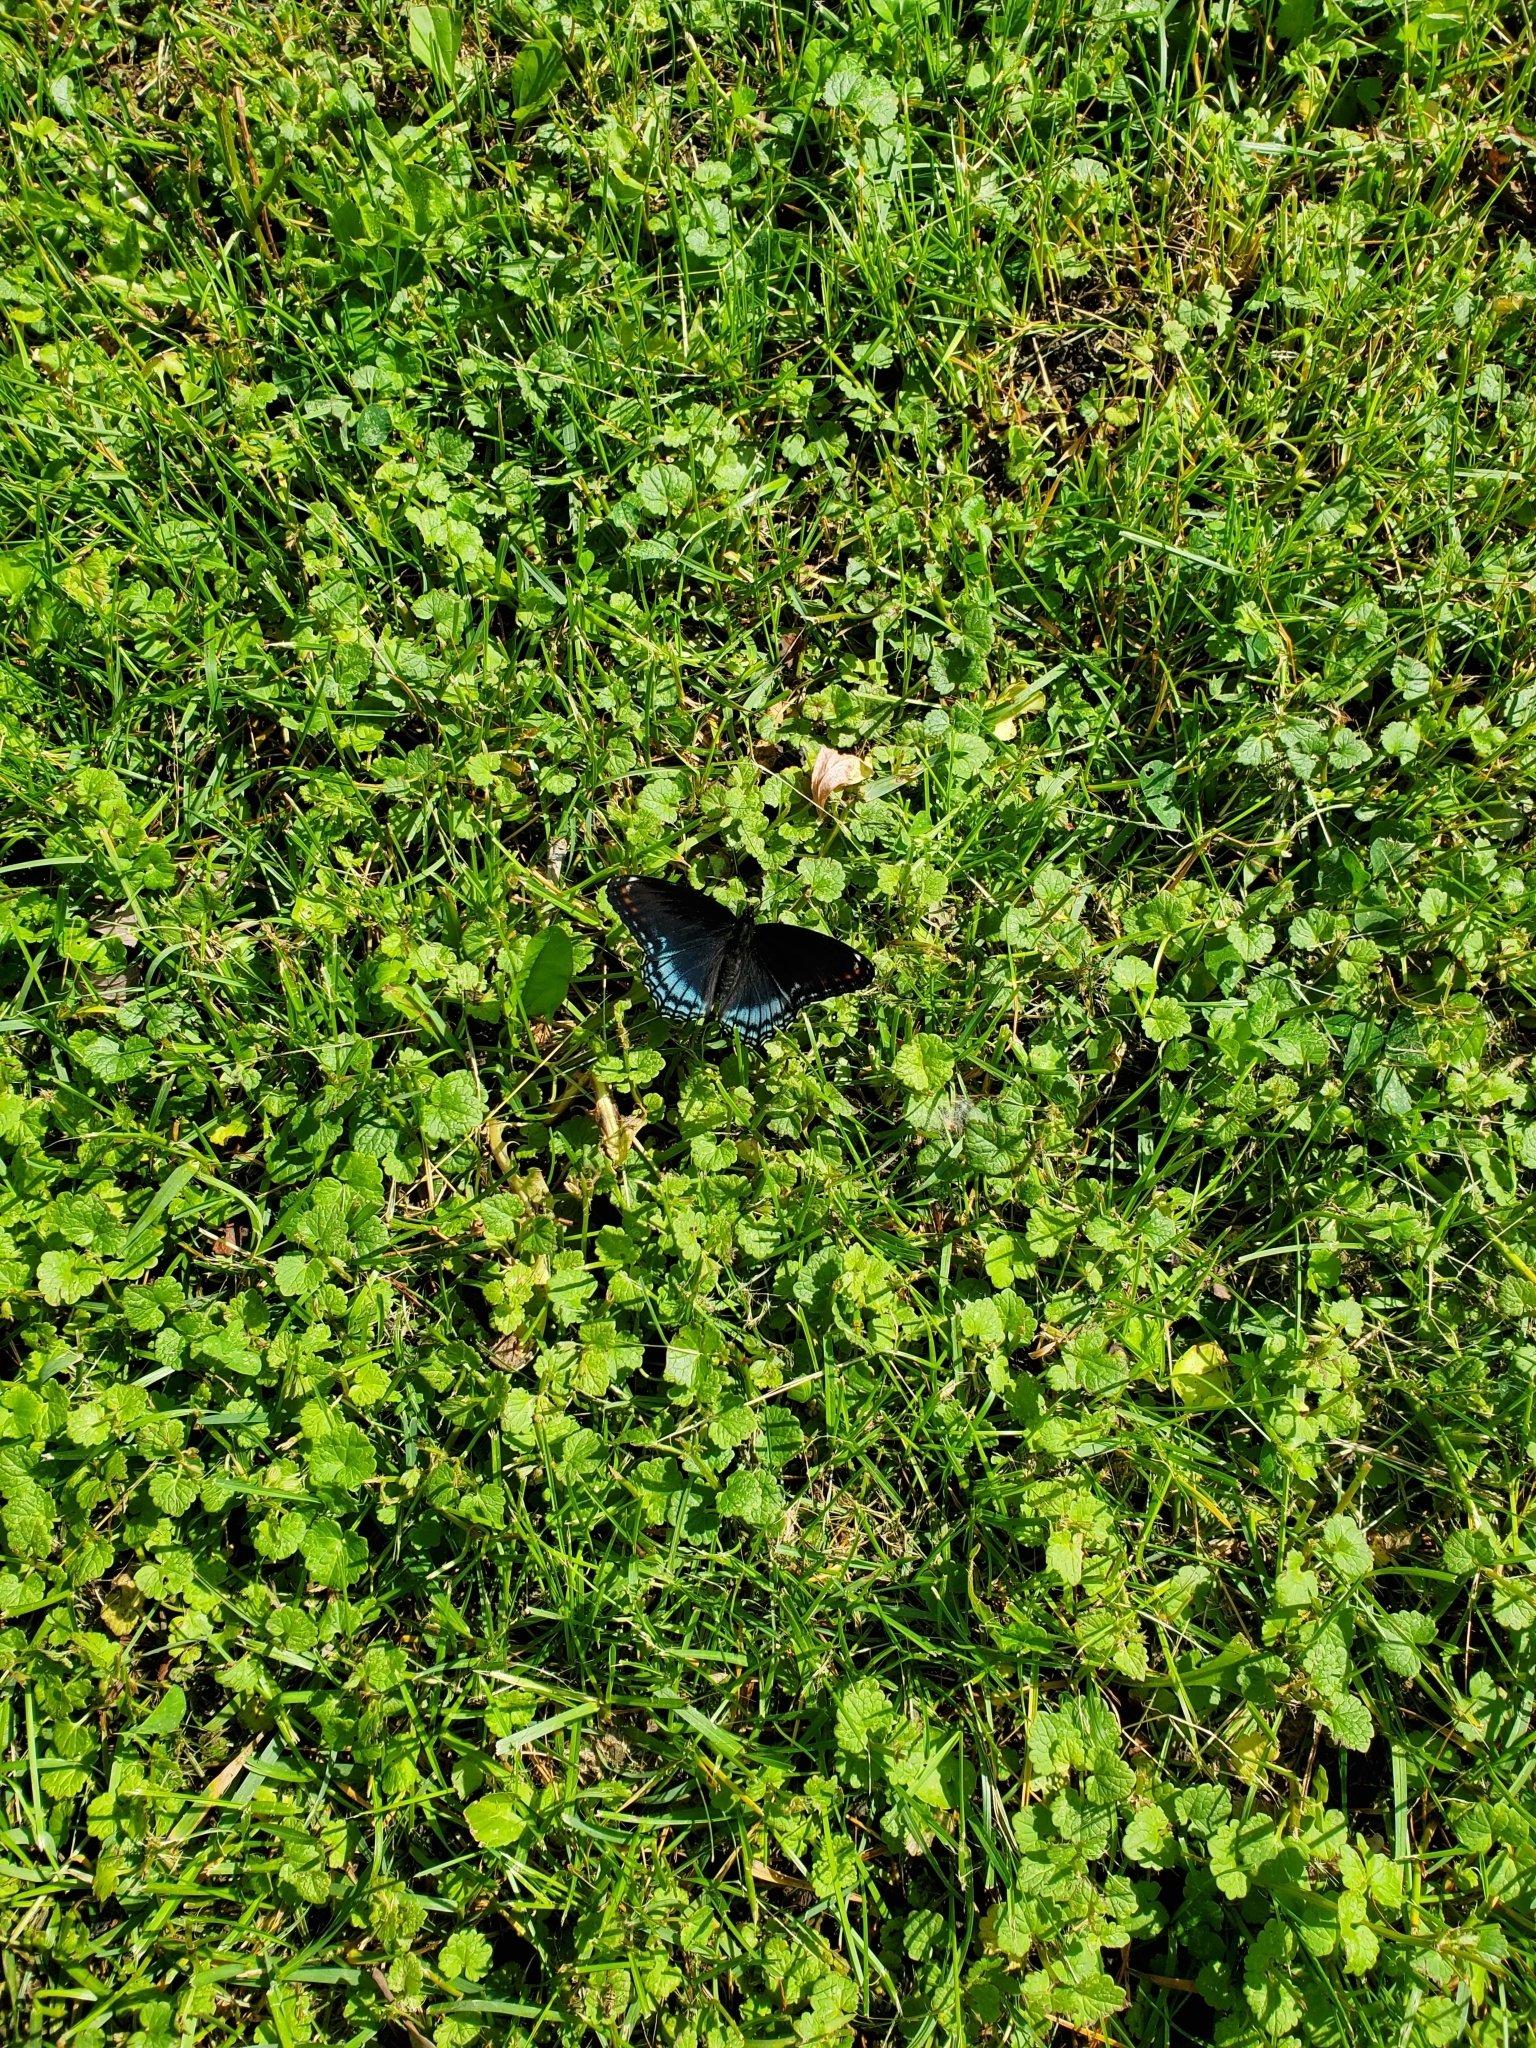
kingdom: Animalia
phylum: Arthropoda
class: Insecta
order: Lepidoptera
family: Nymphalidae
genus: Limenitis
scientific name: Limenitis arthemis
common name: Red-spotted admiral
